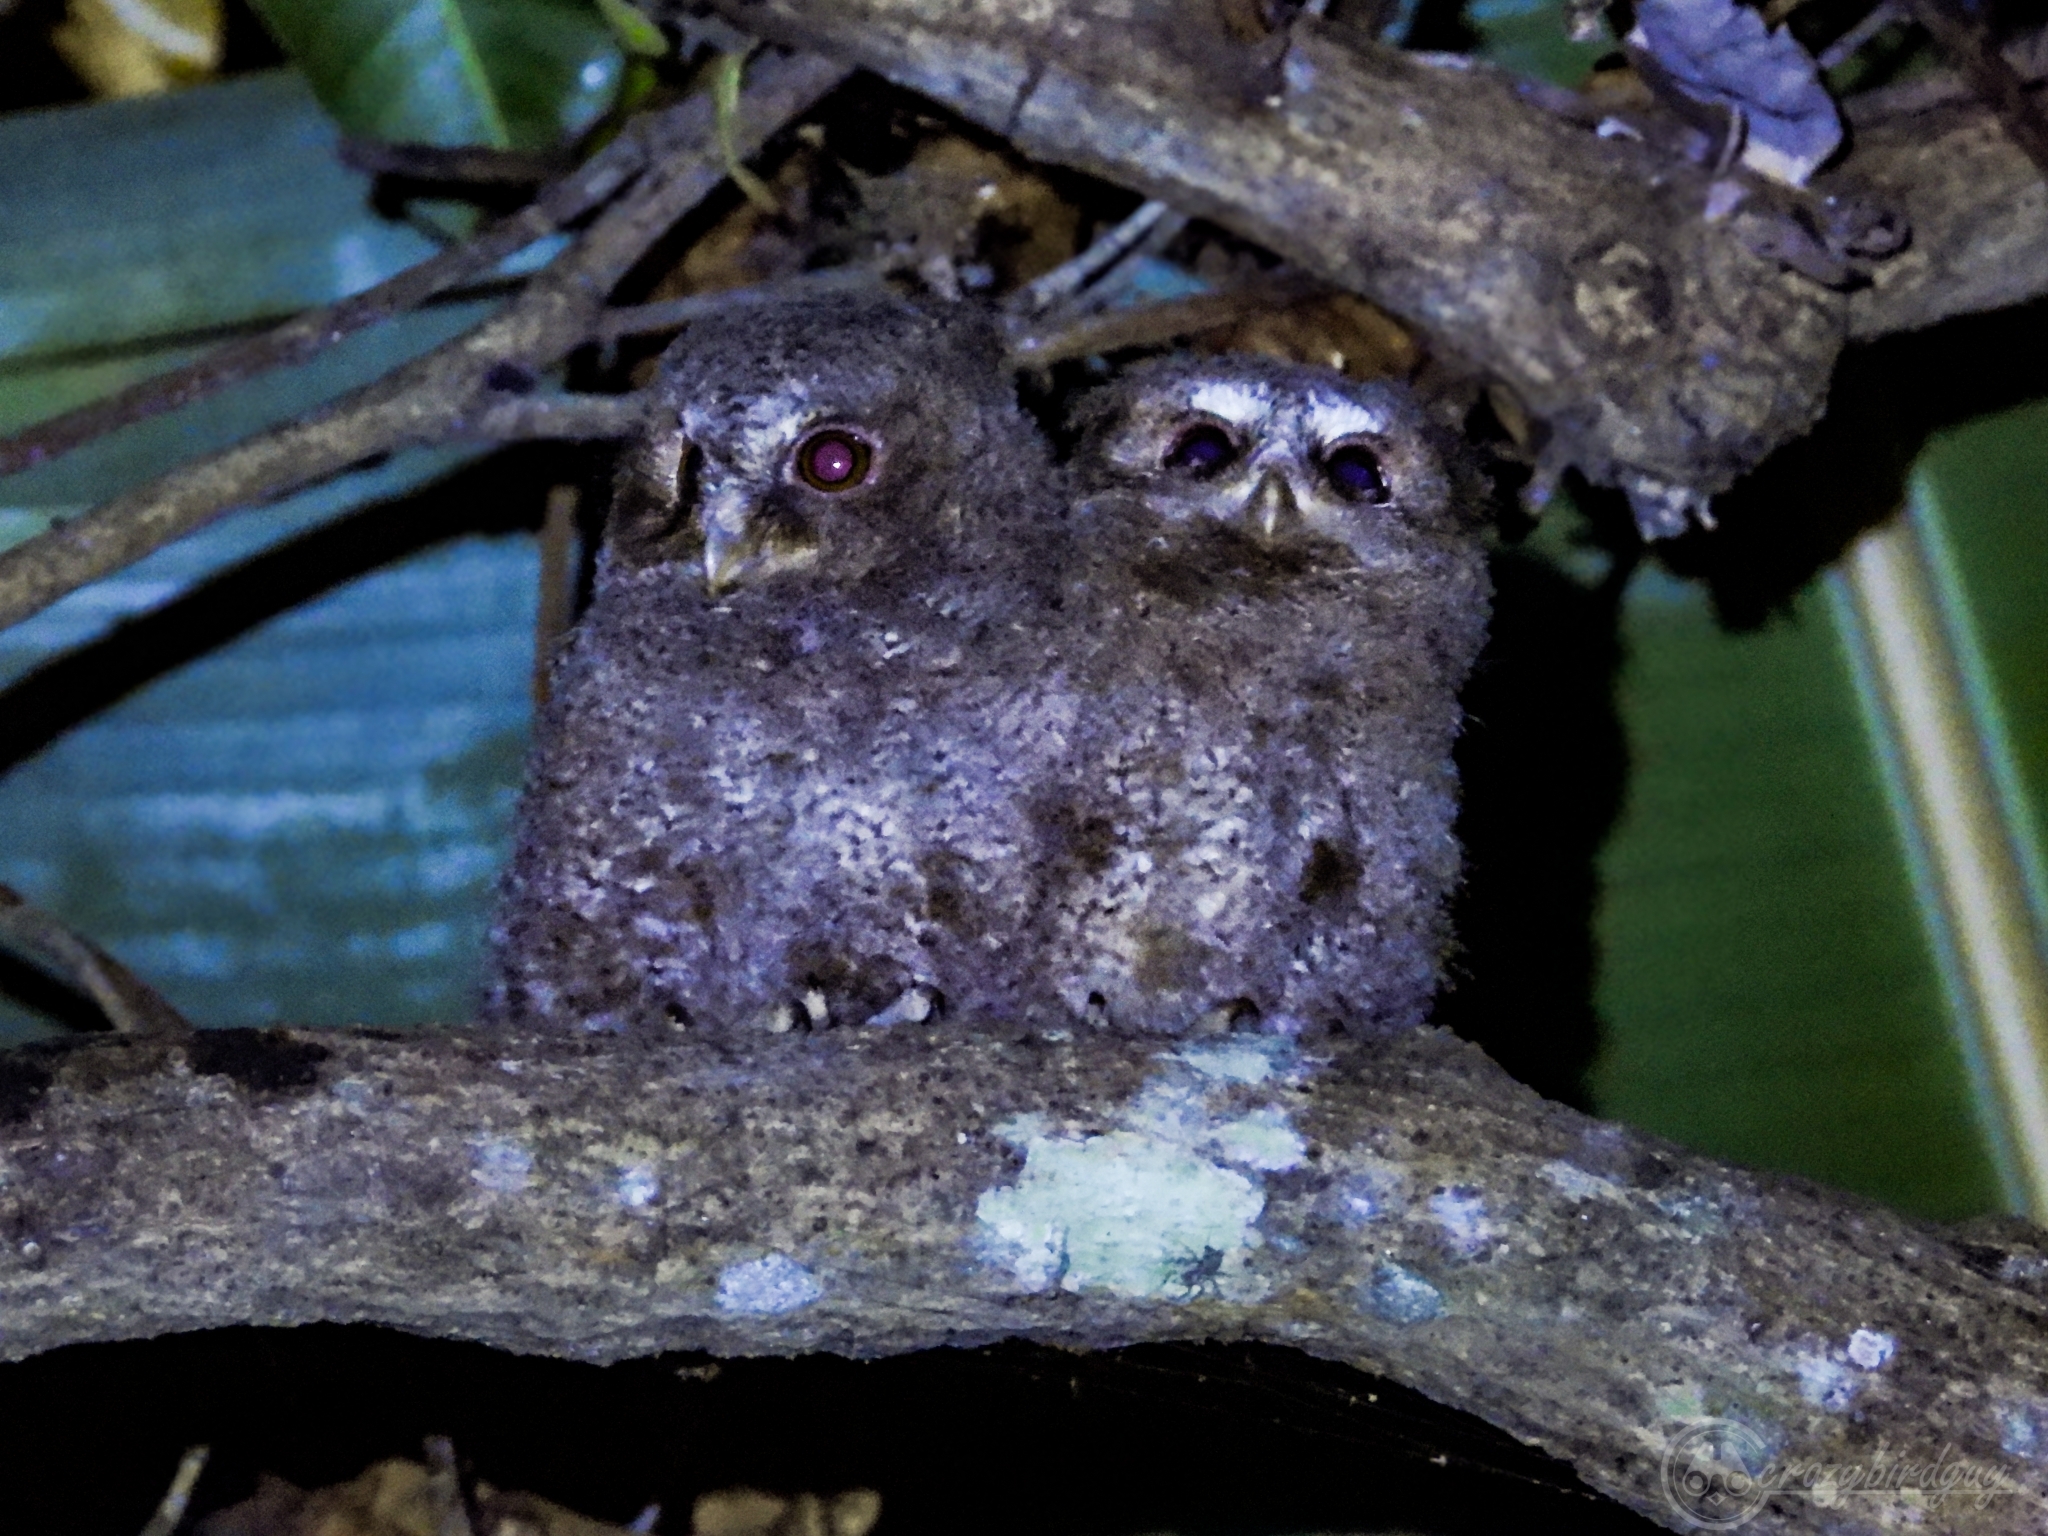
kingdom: Animalia
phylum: Chordata
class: Aves
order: Strigiformes
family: Strigidae
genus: Otus
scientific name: Otus lempiji
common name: Sunda scops-owl
